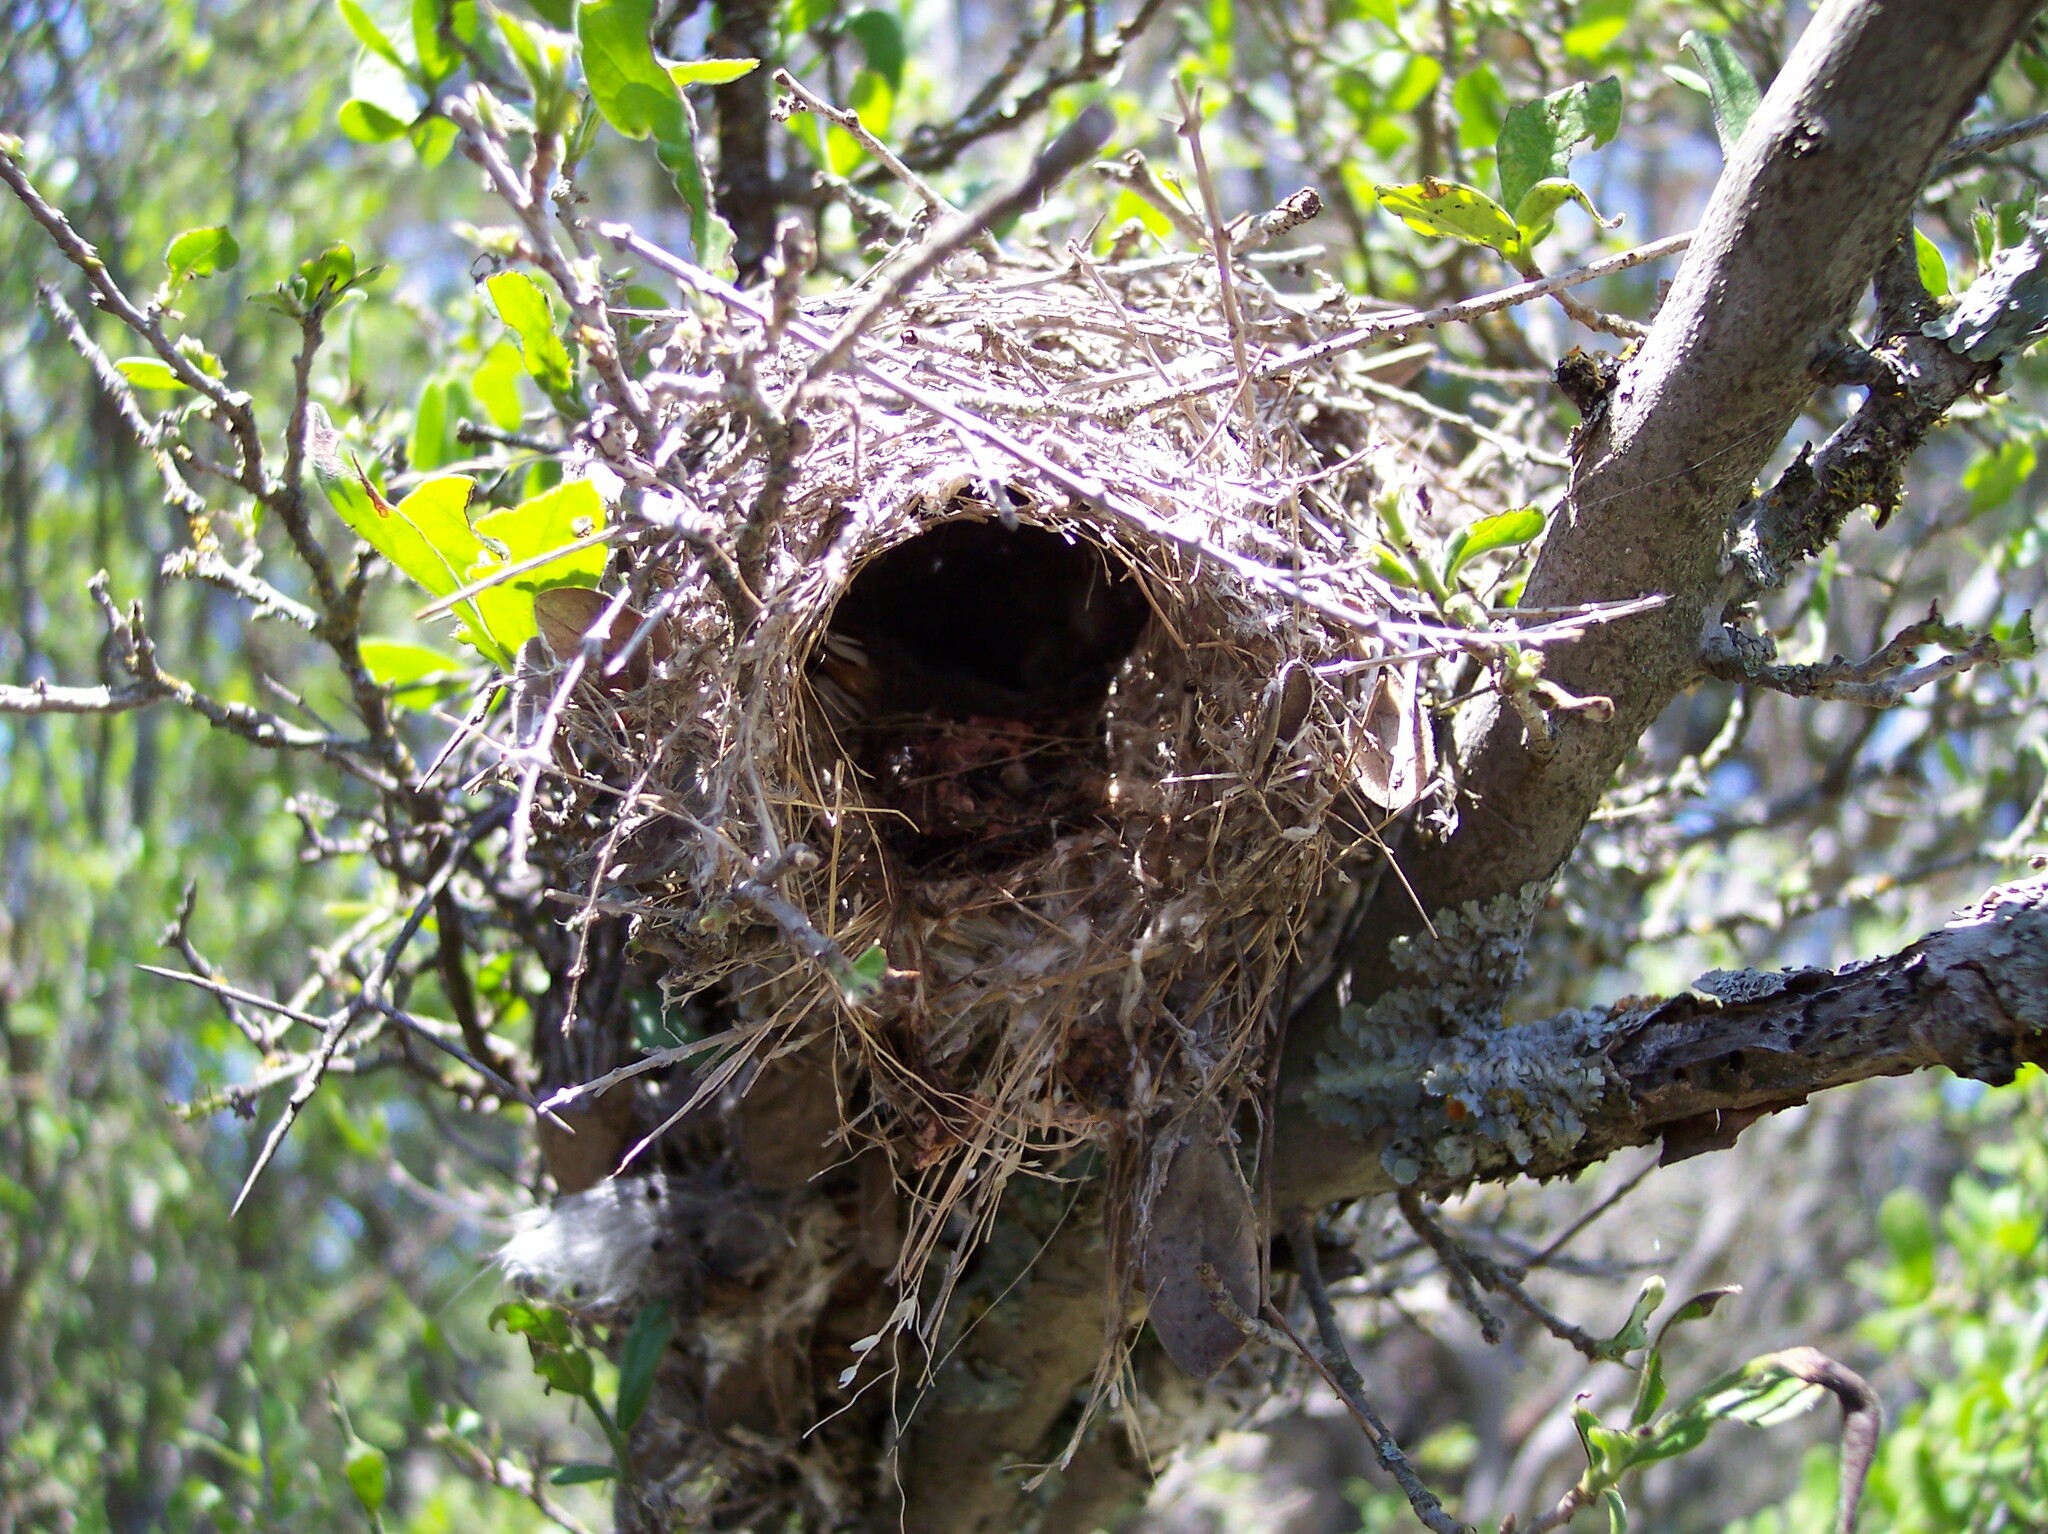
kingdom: Animalia
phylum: Chordata
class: Aves
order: Passeriformes
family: Remizidae
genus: Auriparus
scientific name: Auriparus flaviceps
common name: Verdin
